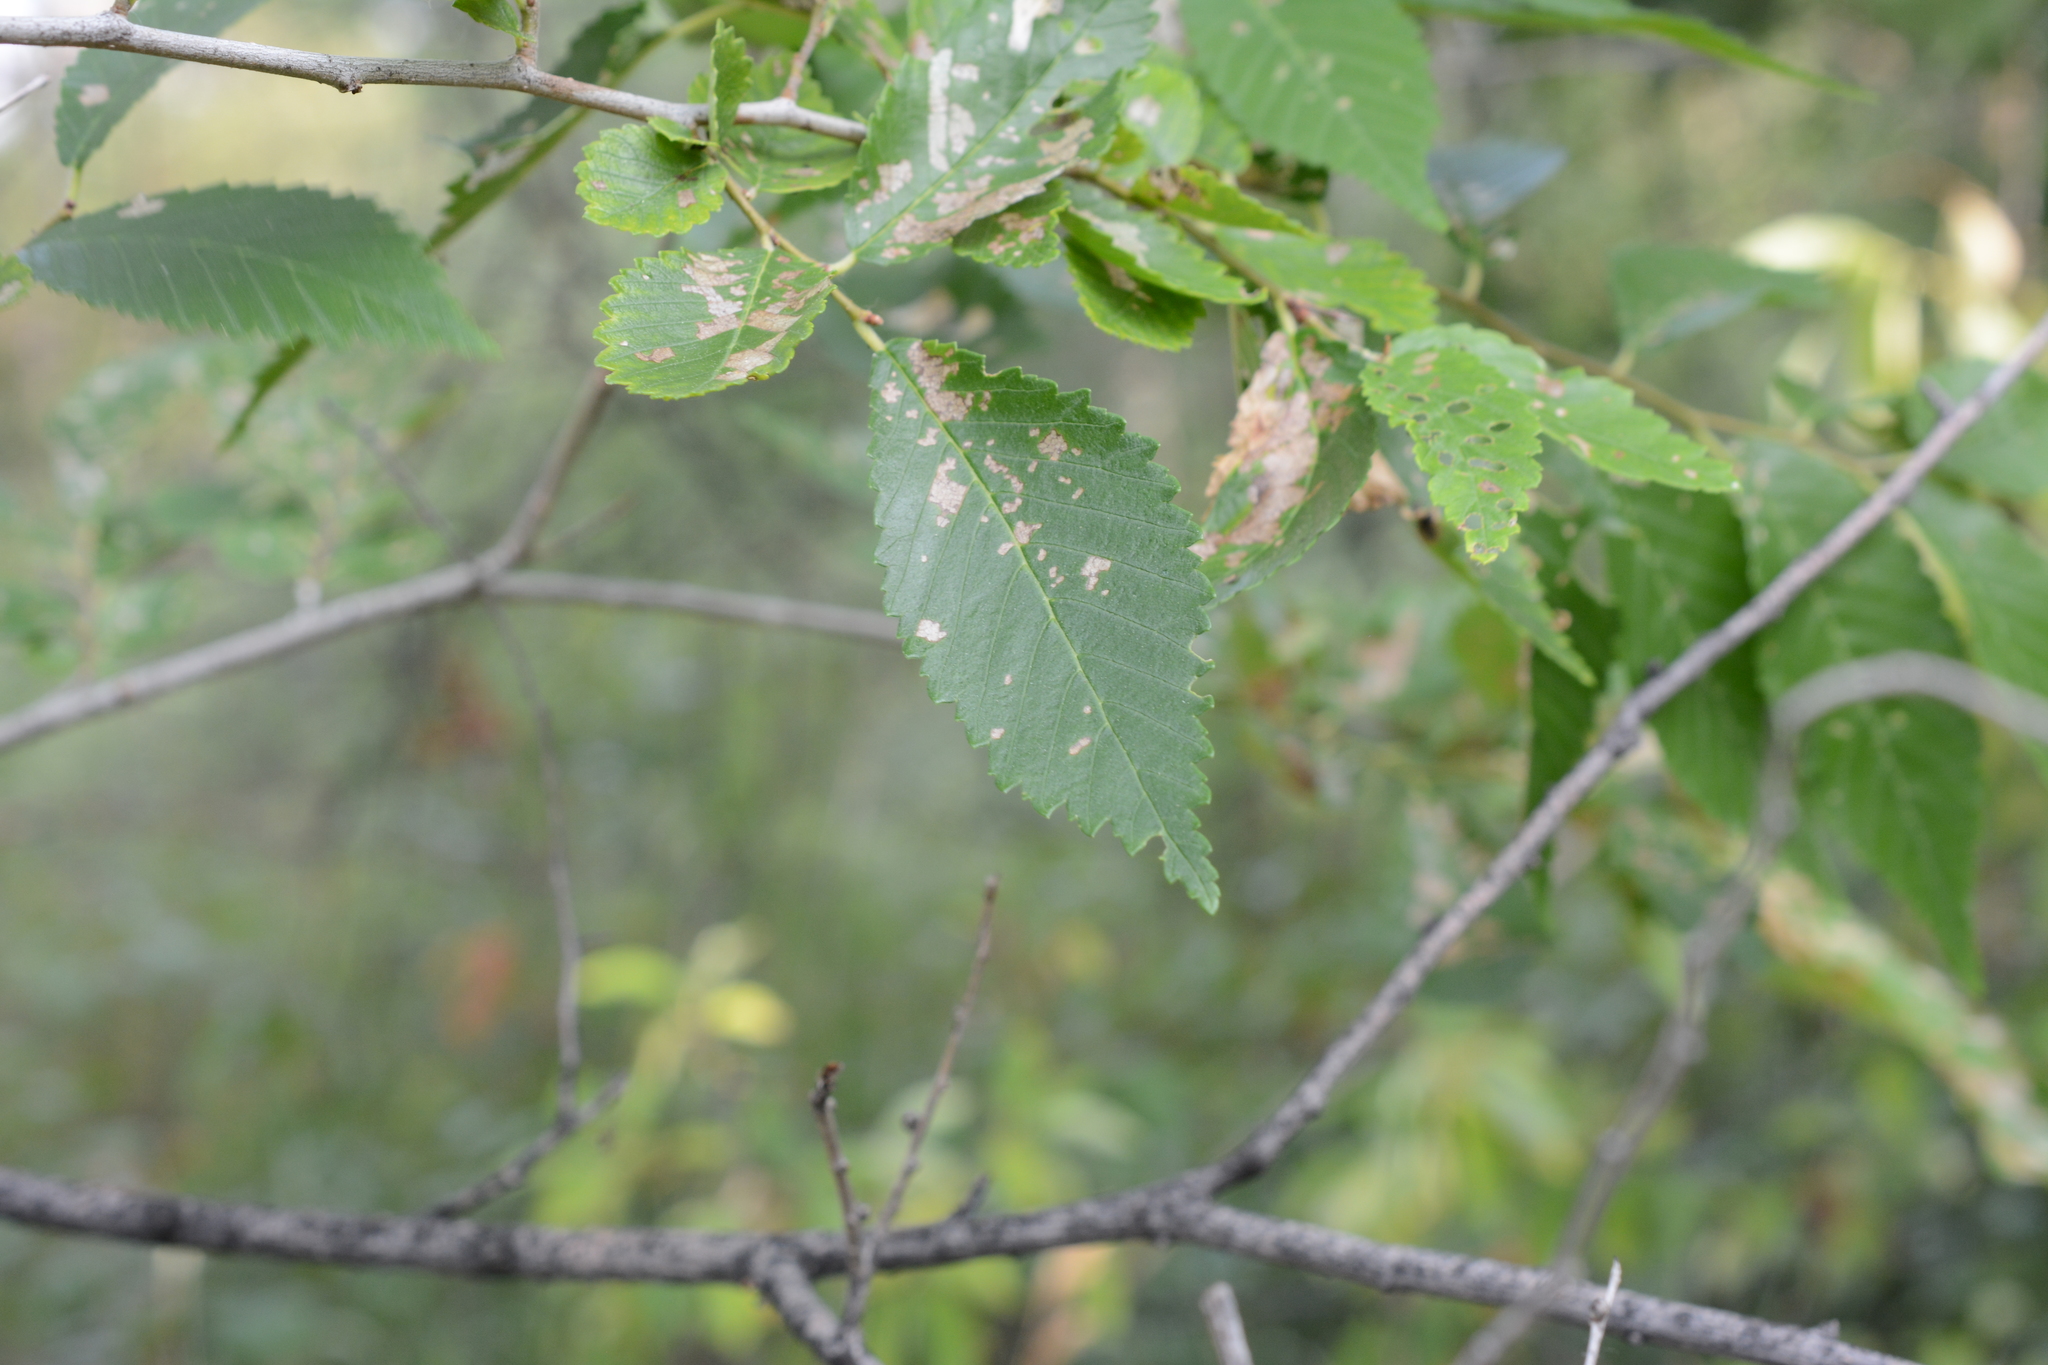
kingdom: Plantae
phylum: Tracheophyta
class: Magnoliopsida
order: Rosales
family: Ulmaceae
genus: Ulmus
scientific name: Ulmus pumila
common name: Siberian elm
